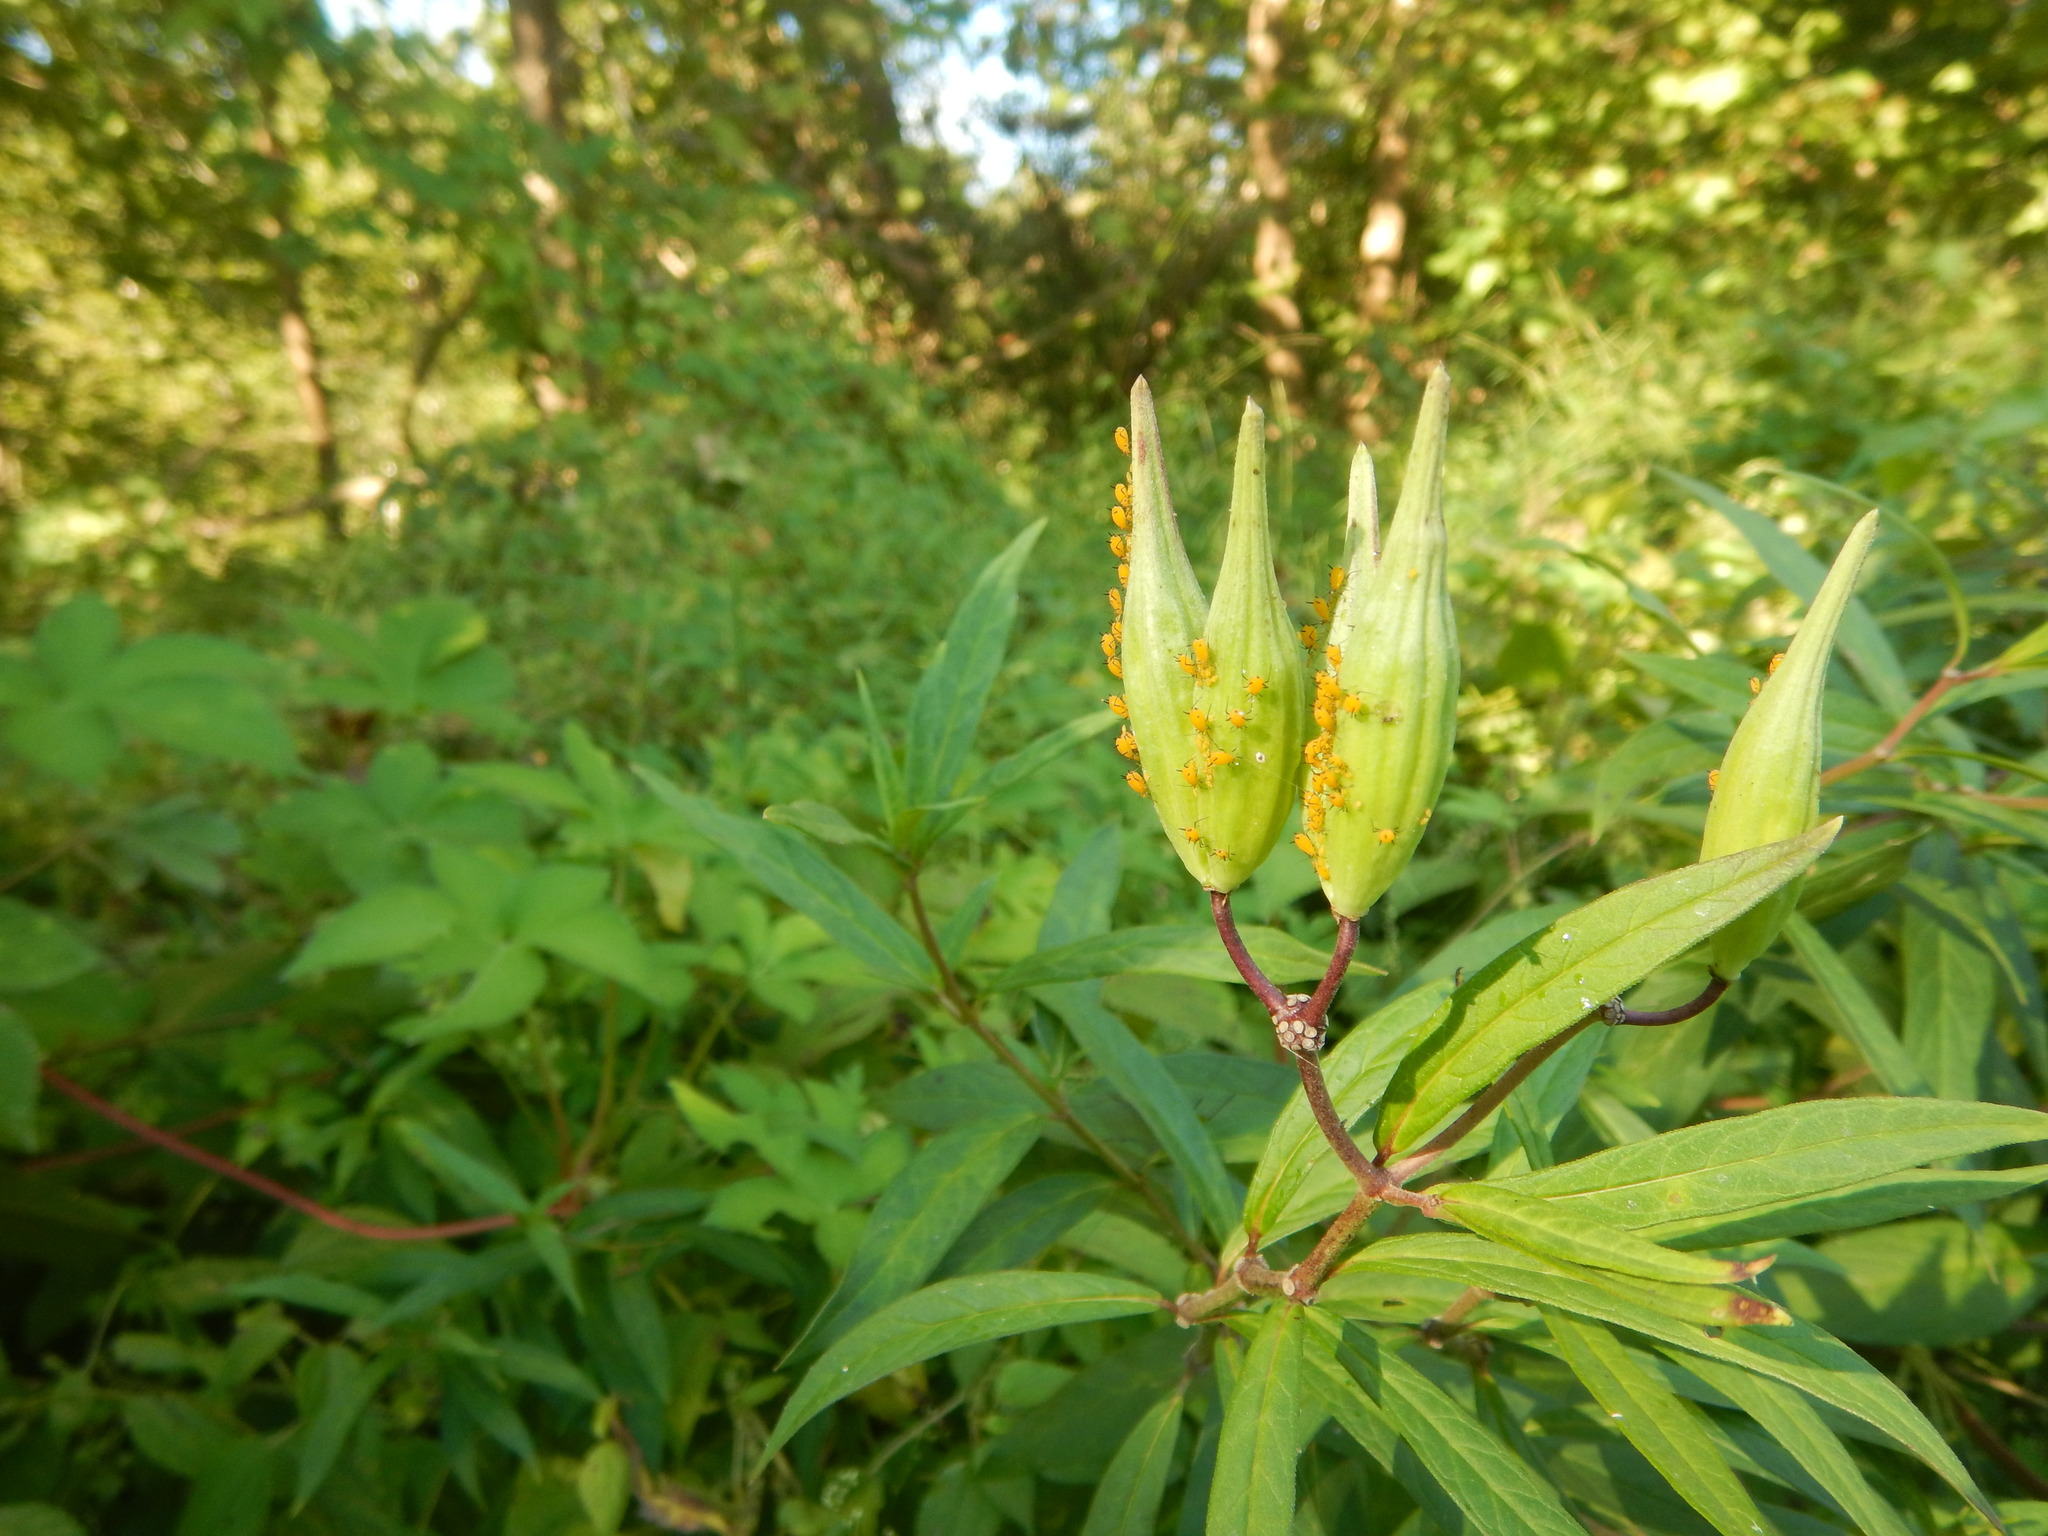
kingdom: Animalia
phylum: Arthropoda
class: Insecta
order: Hemiptera
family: Aphididae
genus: Aphis
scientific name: Aphis nerii
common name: Oleander aphid
